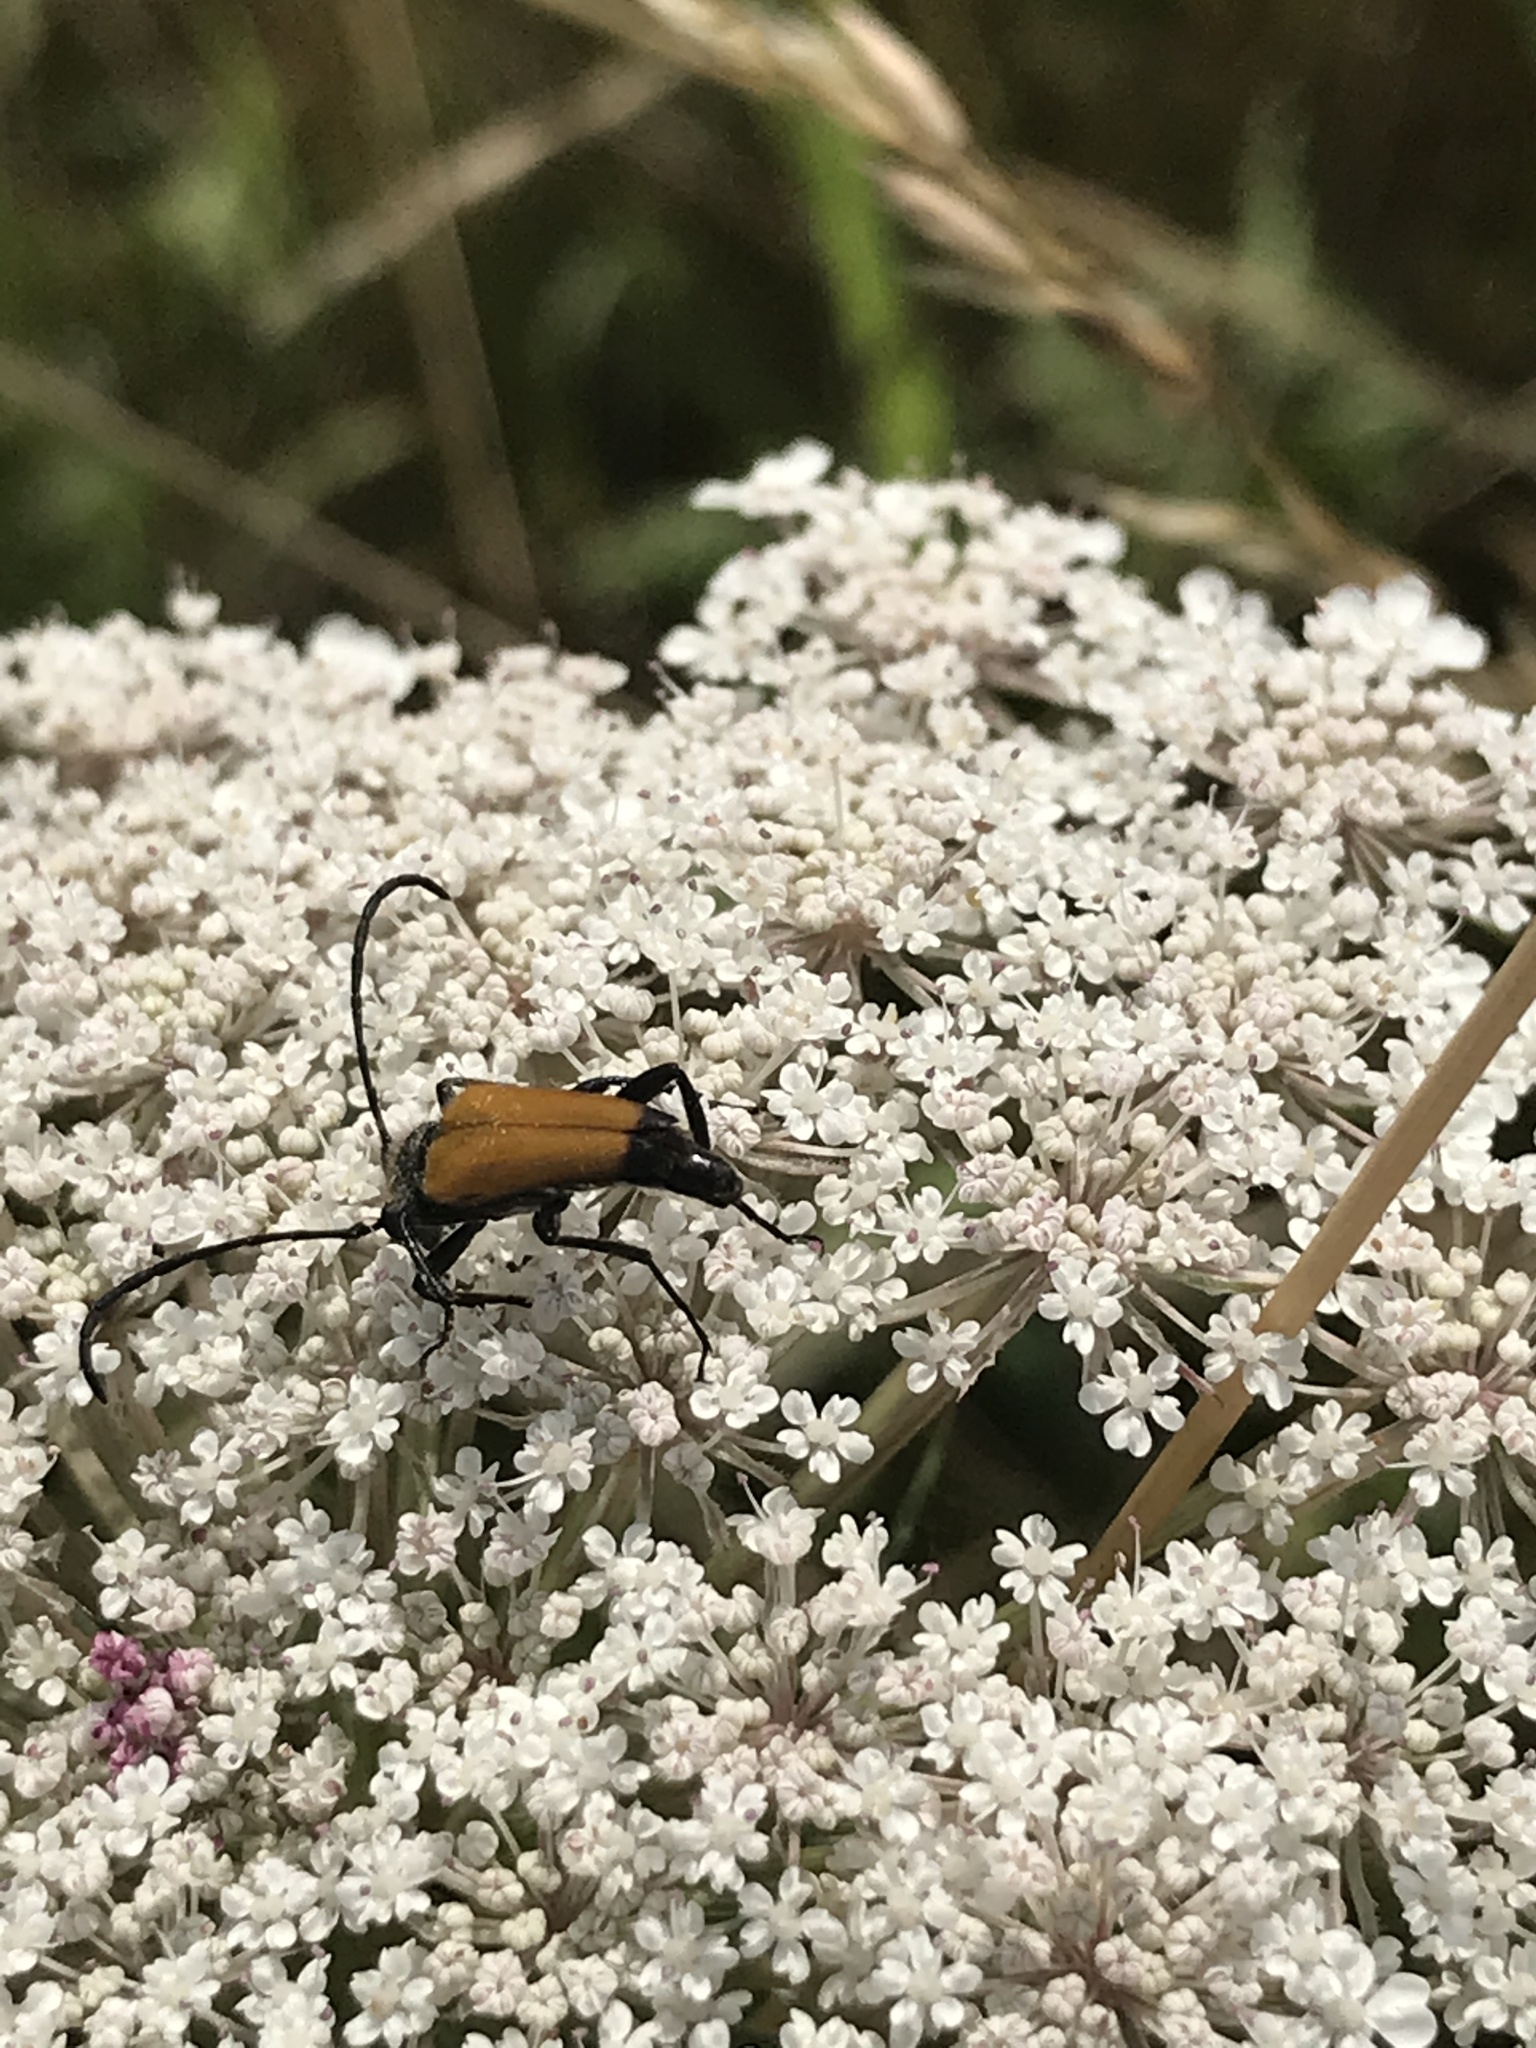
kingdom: Animalia
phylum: Arthropoda
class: Insecta
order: Coleoptera
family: Cerambycidae
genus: Paracorymbia
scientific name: Paracorymbia fulva
